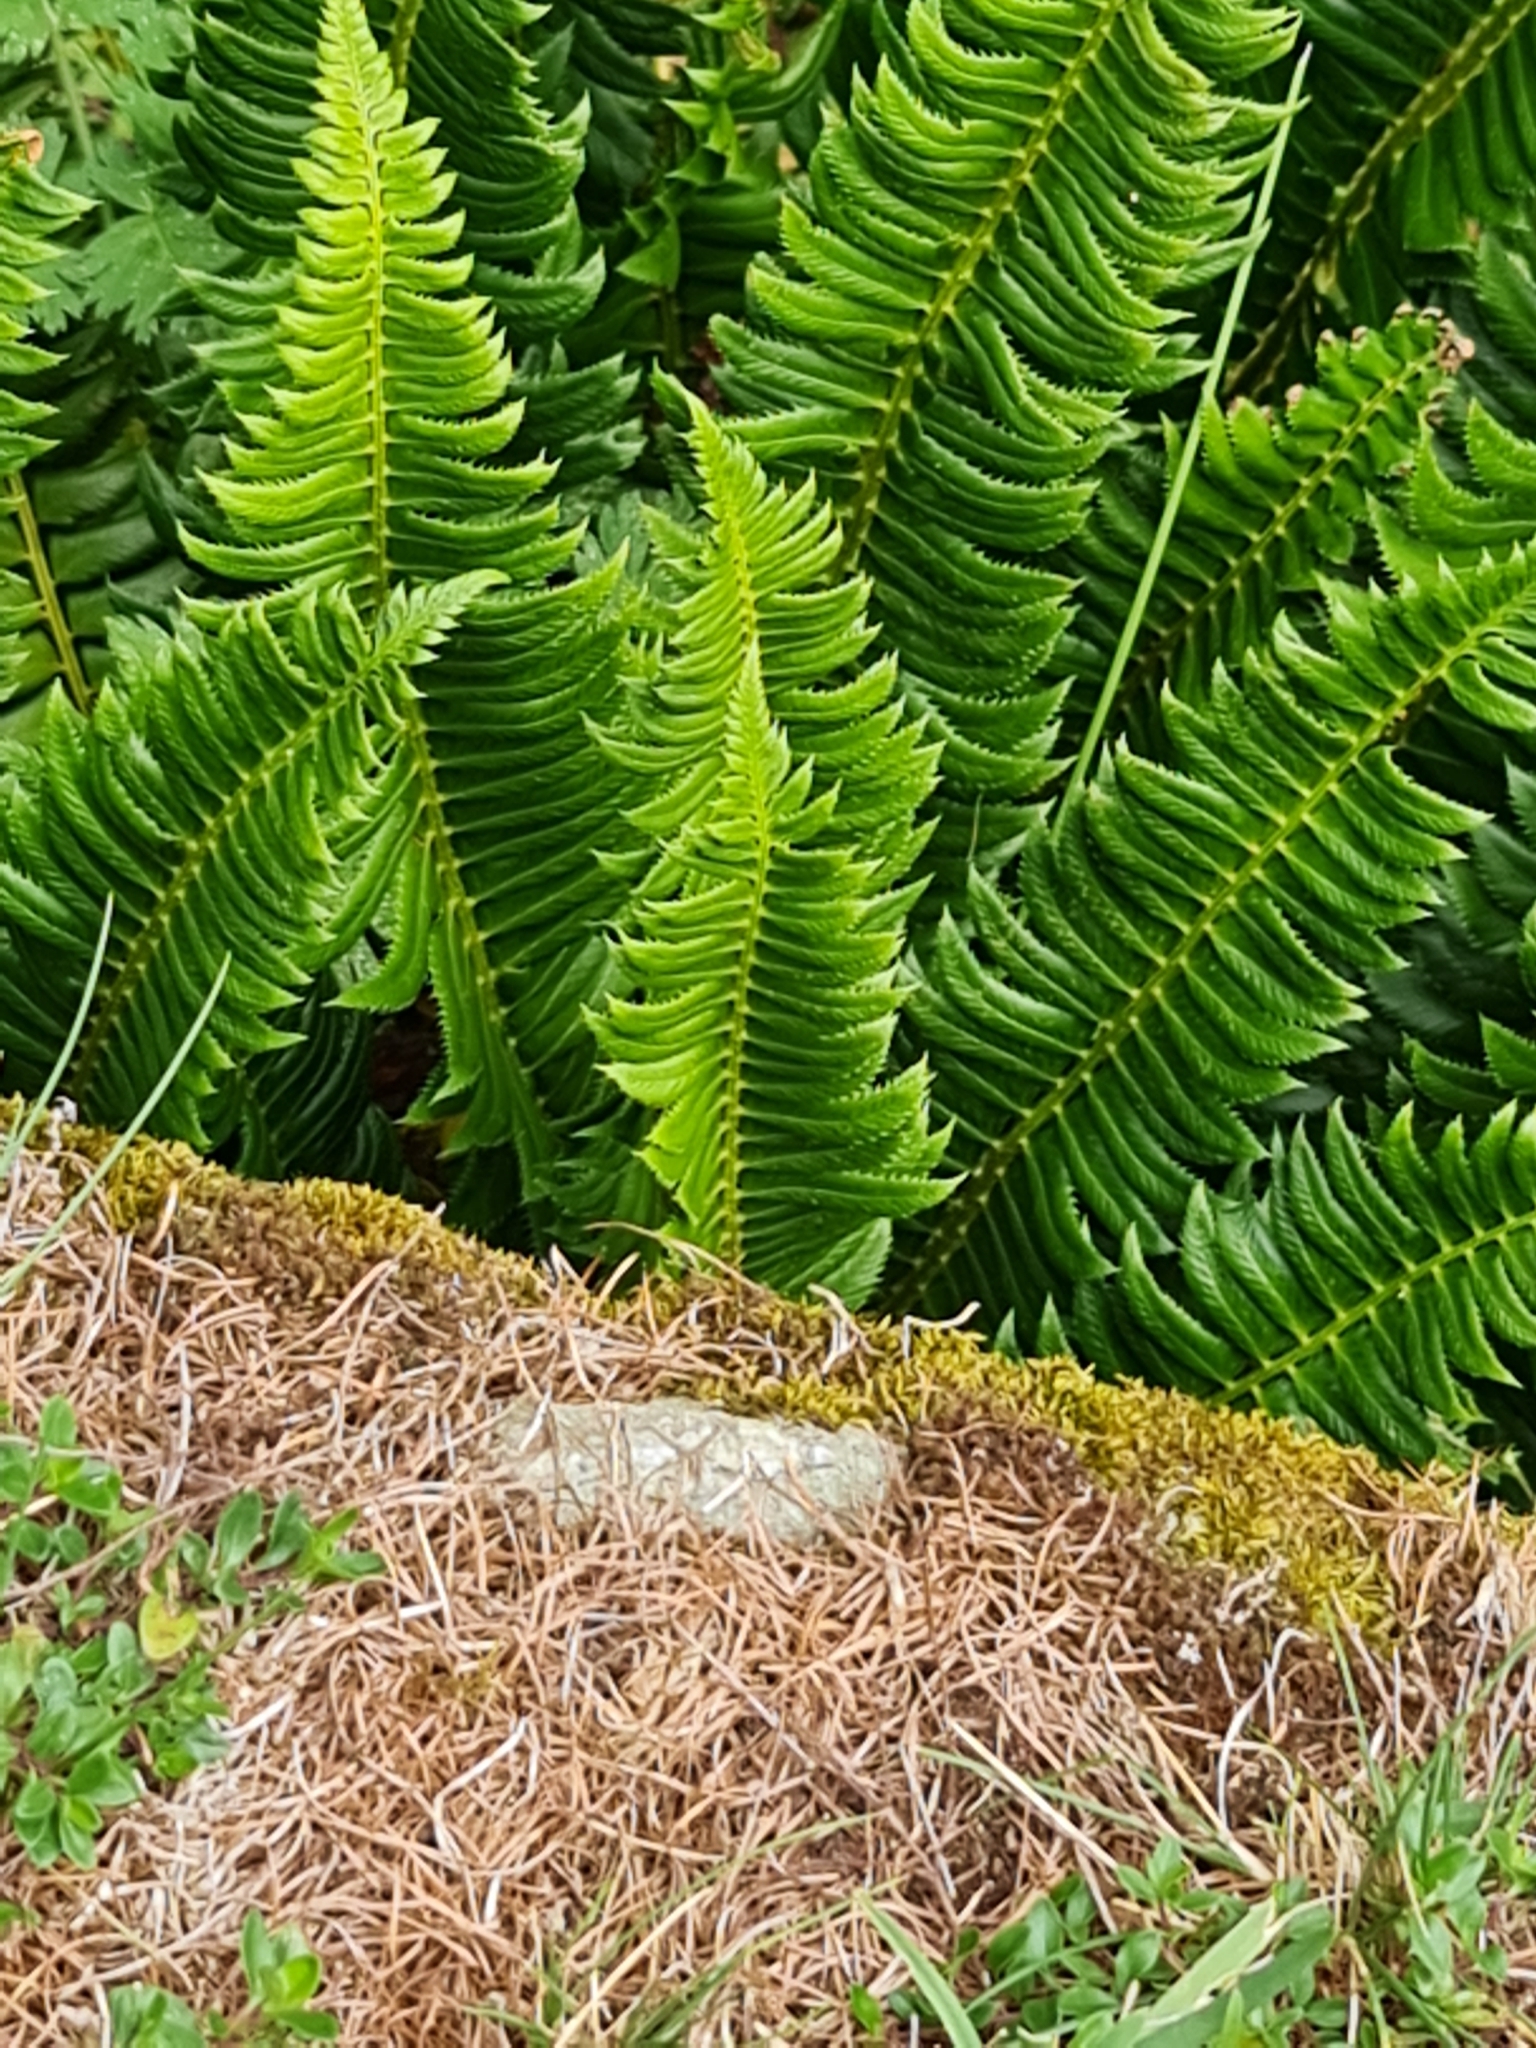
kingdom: Plantae
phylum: Tracheophyta
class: Polypodiopsida
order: Polypodiales
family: Dryopteridaceae
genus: Polystichum
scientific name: Polystichum lonchitis
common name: Holly fern
